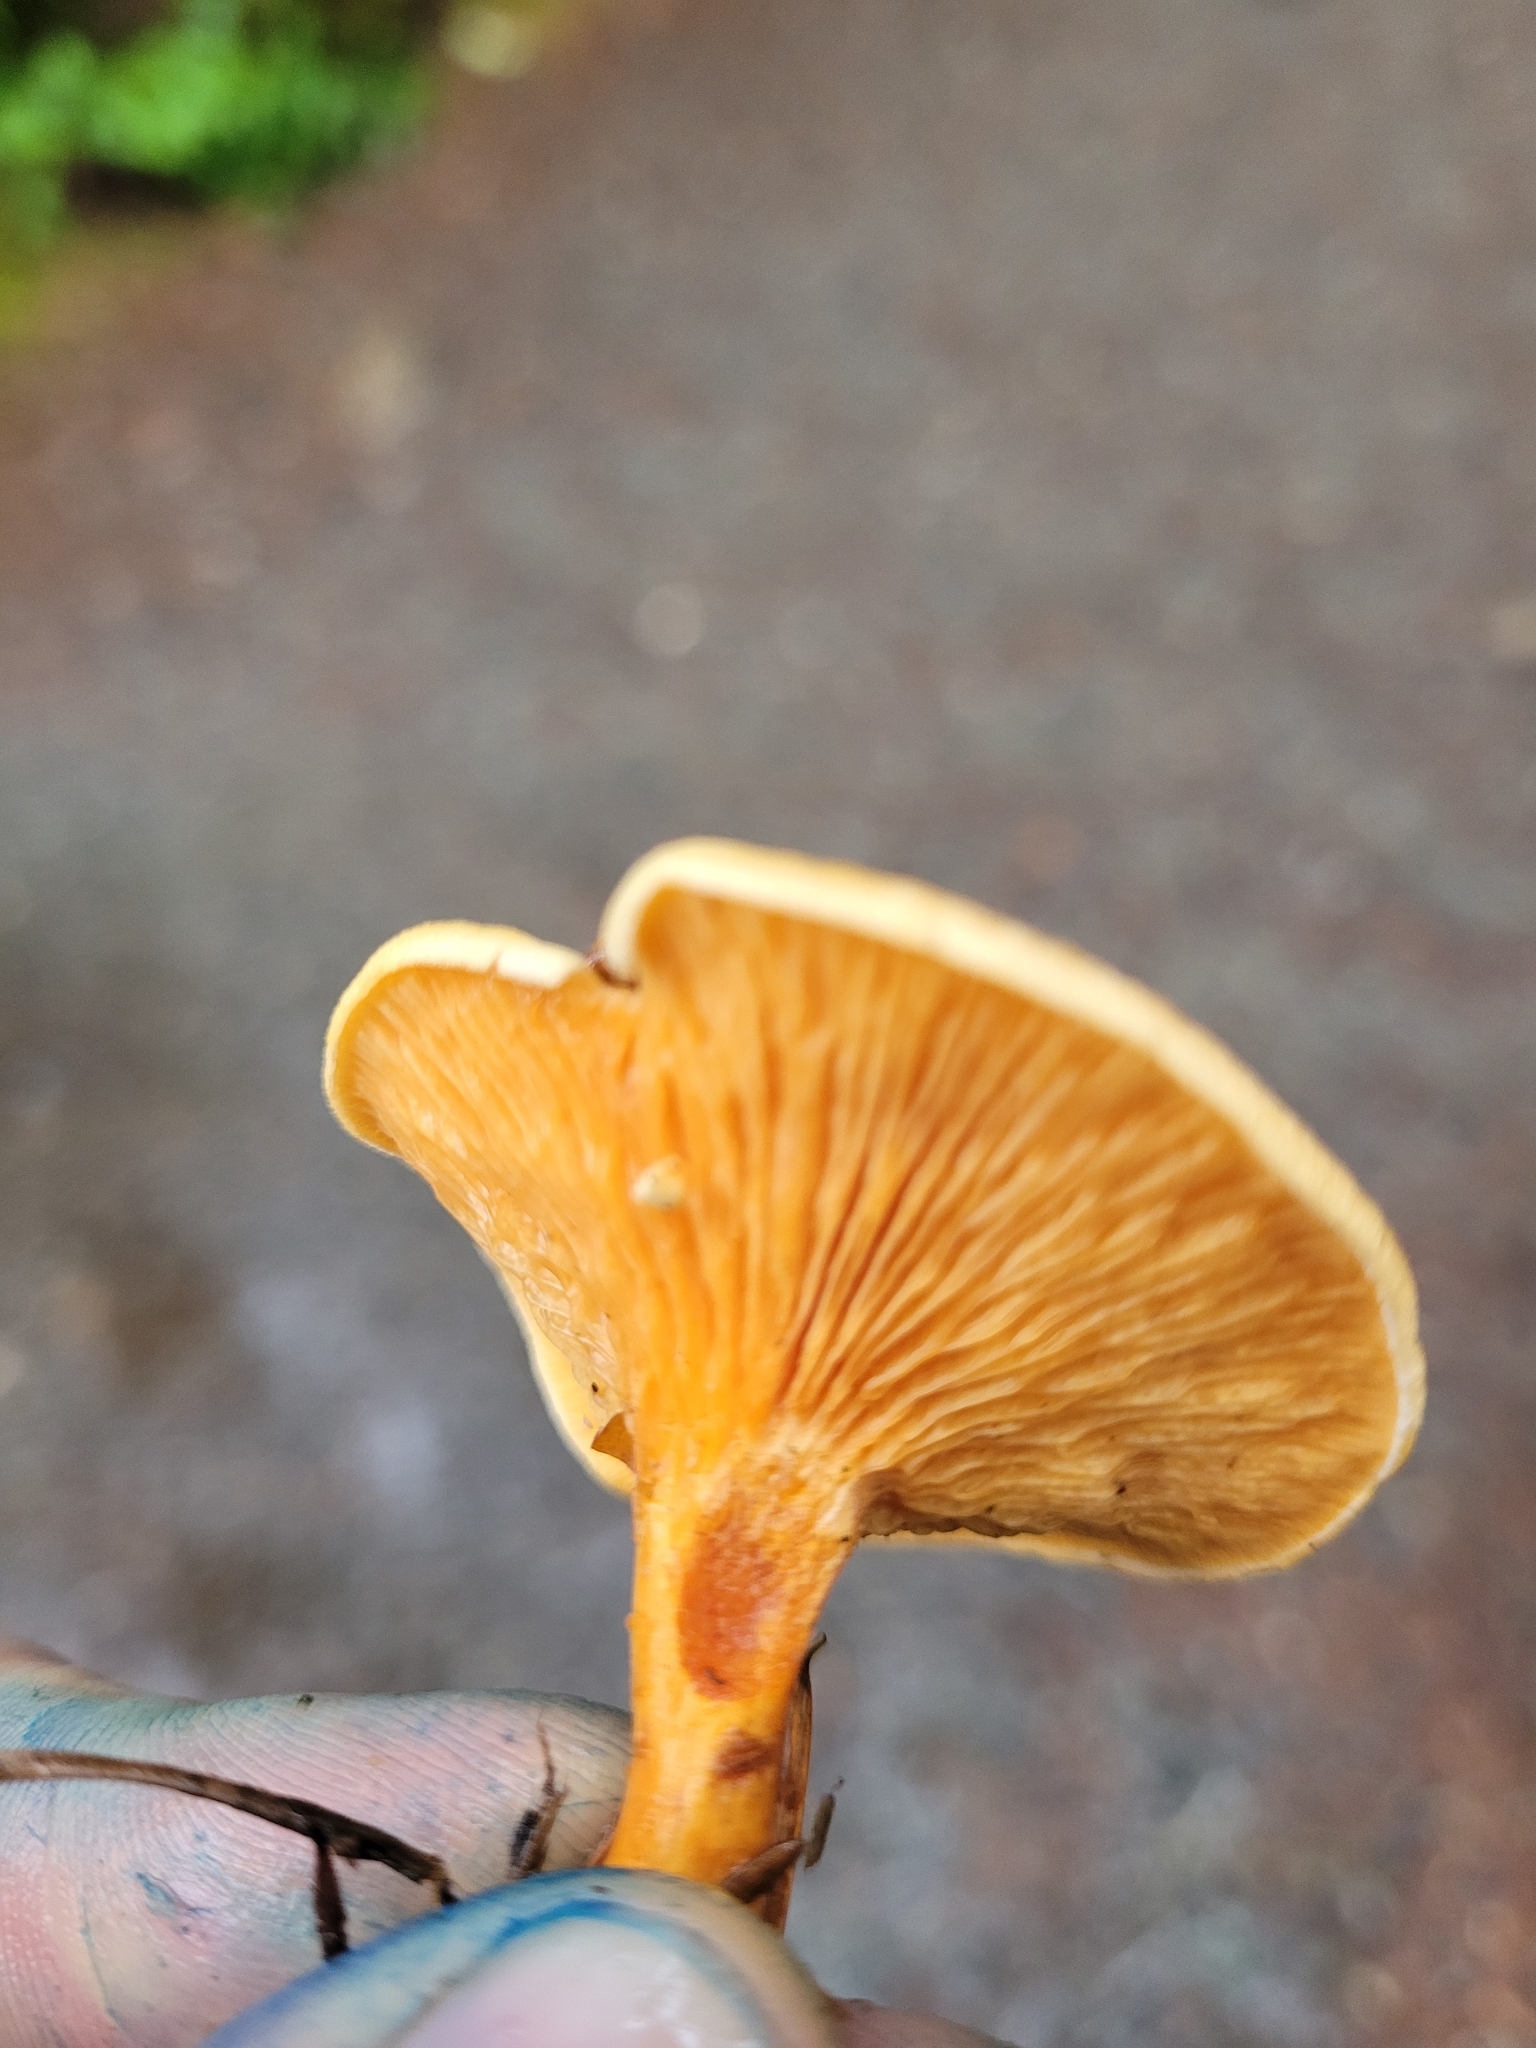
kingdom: Fungi
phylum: Basidiomycota
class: Agaricomycetes
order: Boletales
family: Hygrophoropsidaceae
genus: Hygrophoropsis
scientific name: Hygrophoropsis aurantiaca
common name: False chanterelle
